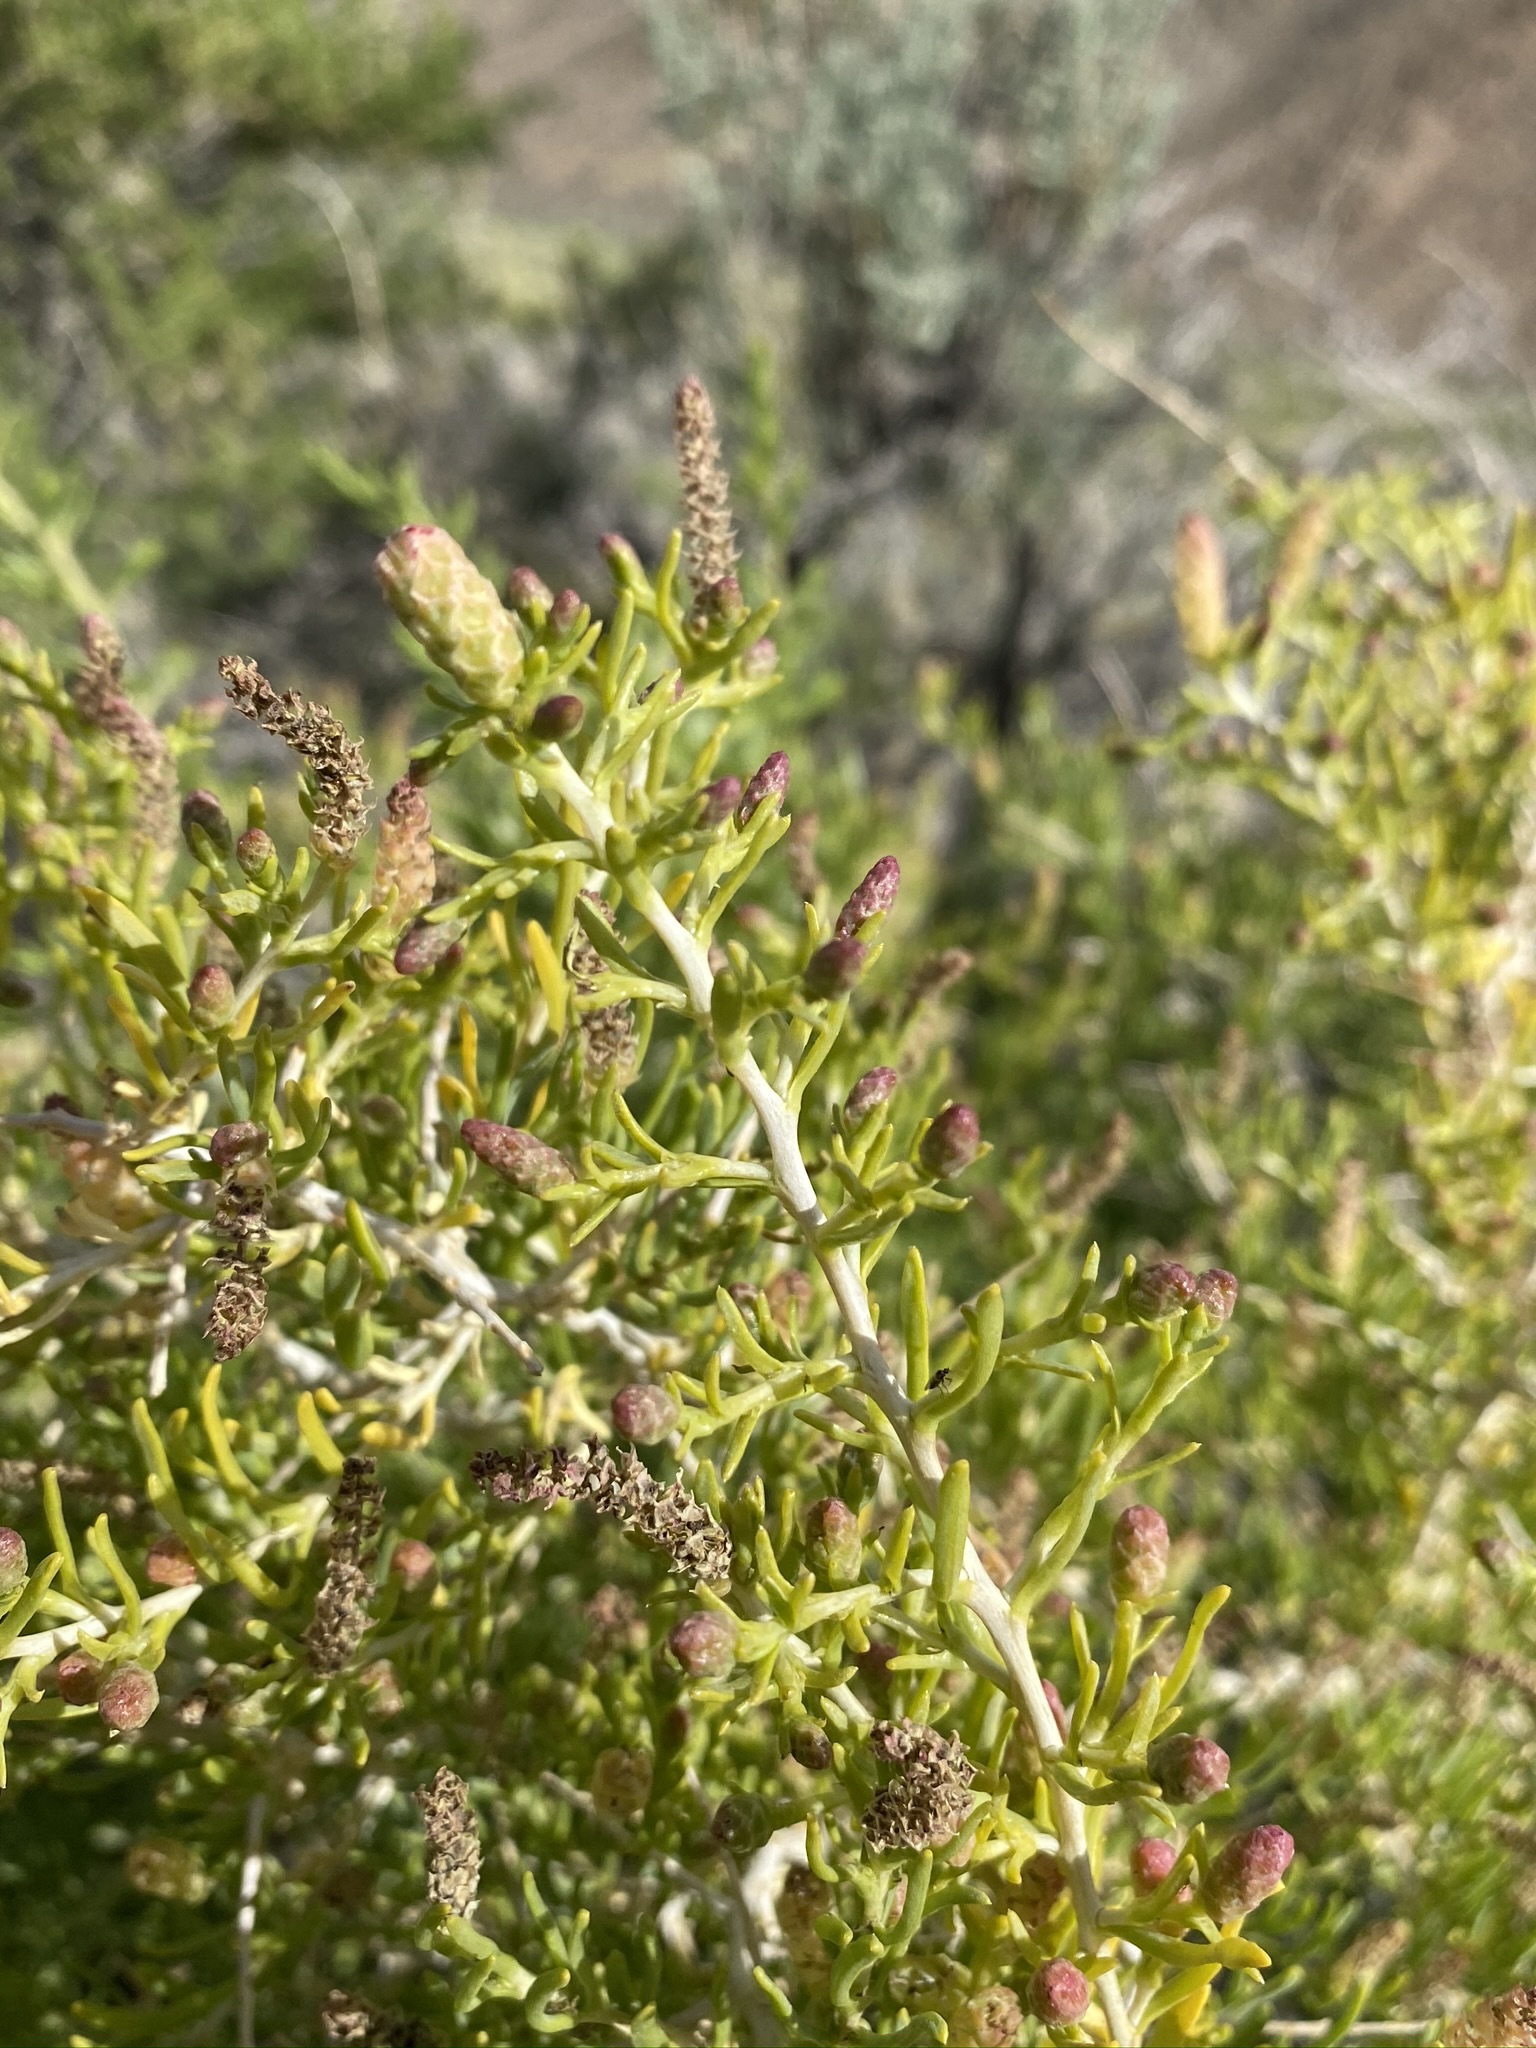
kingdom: Plantae
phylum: Tracheophyta
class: Magnoliopsida
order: Caryophyllales
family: Sarcobataceae
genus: Sarcobatus
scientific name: Sarcobatus vermiculatus
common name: Greasewood
